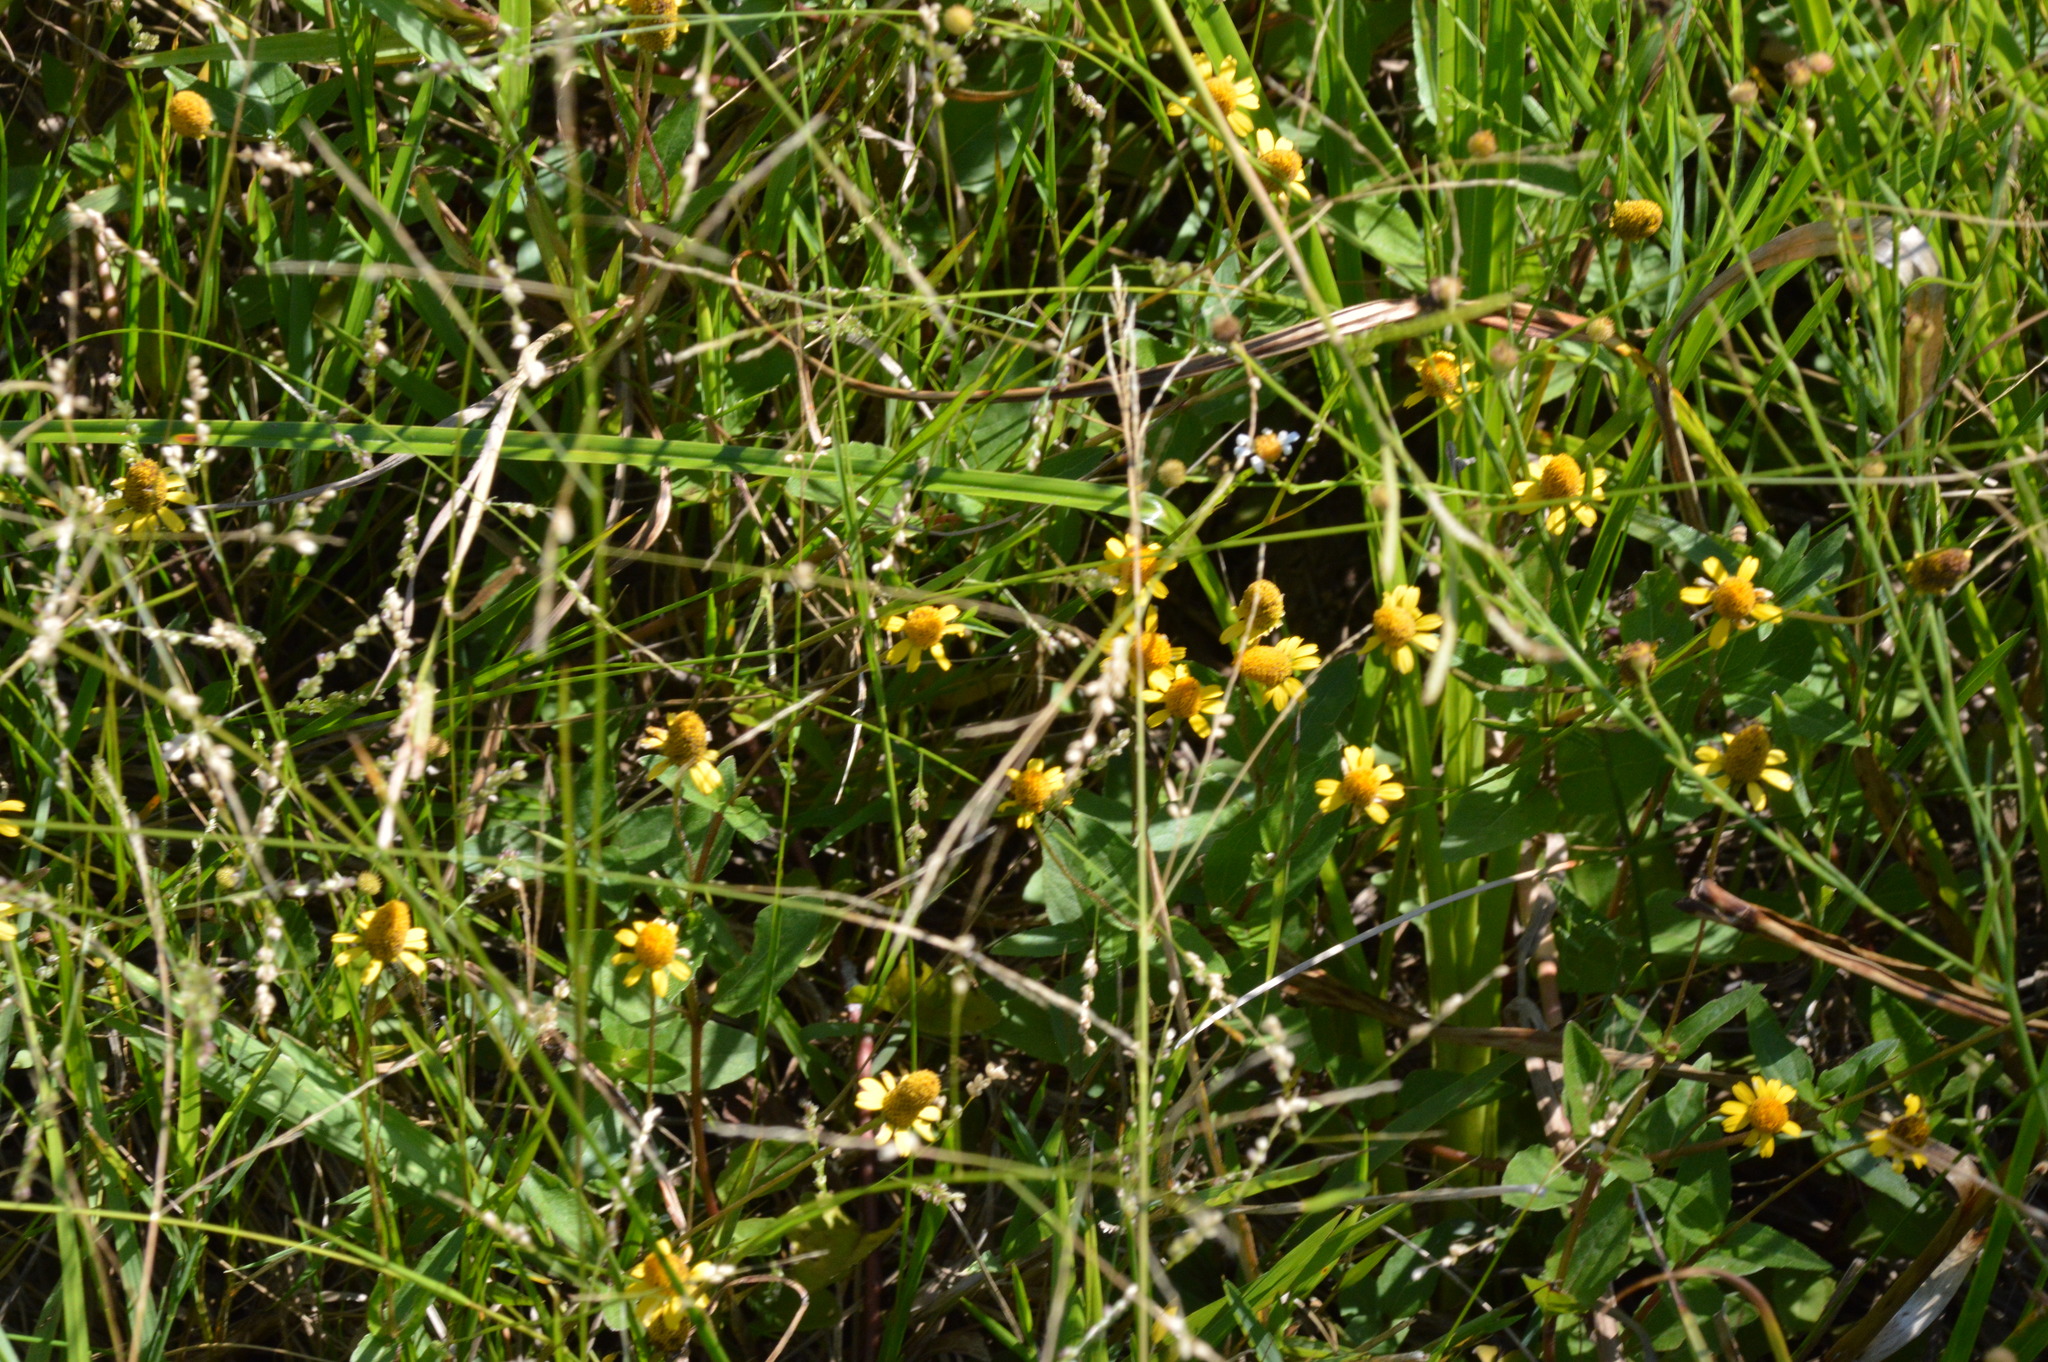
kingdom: Plantae
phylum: Tracheophyta
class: Magnoliopsida
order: Asterales
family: Asteraceae
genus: Acmella
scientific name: Acmella repens
